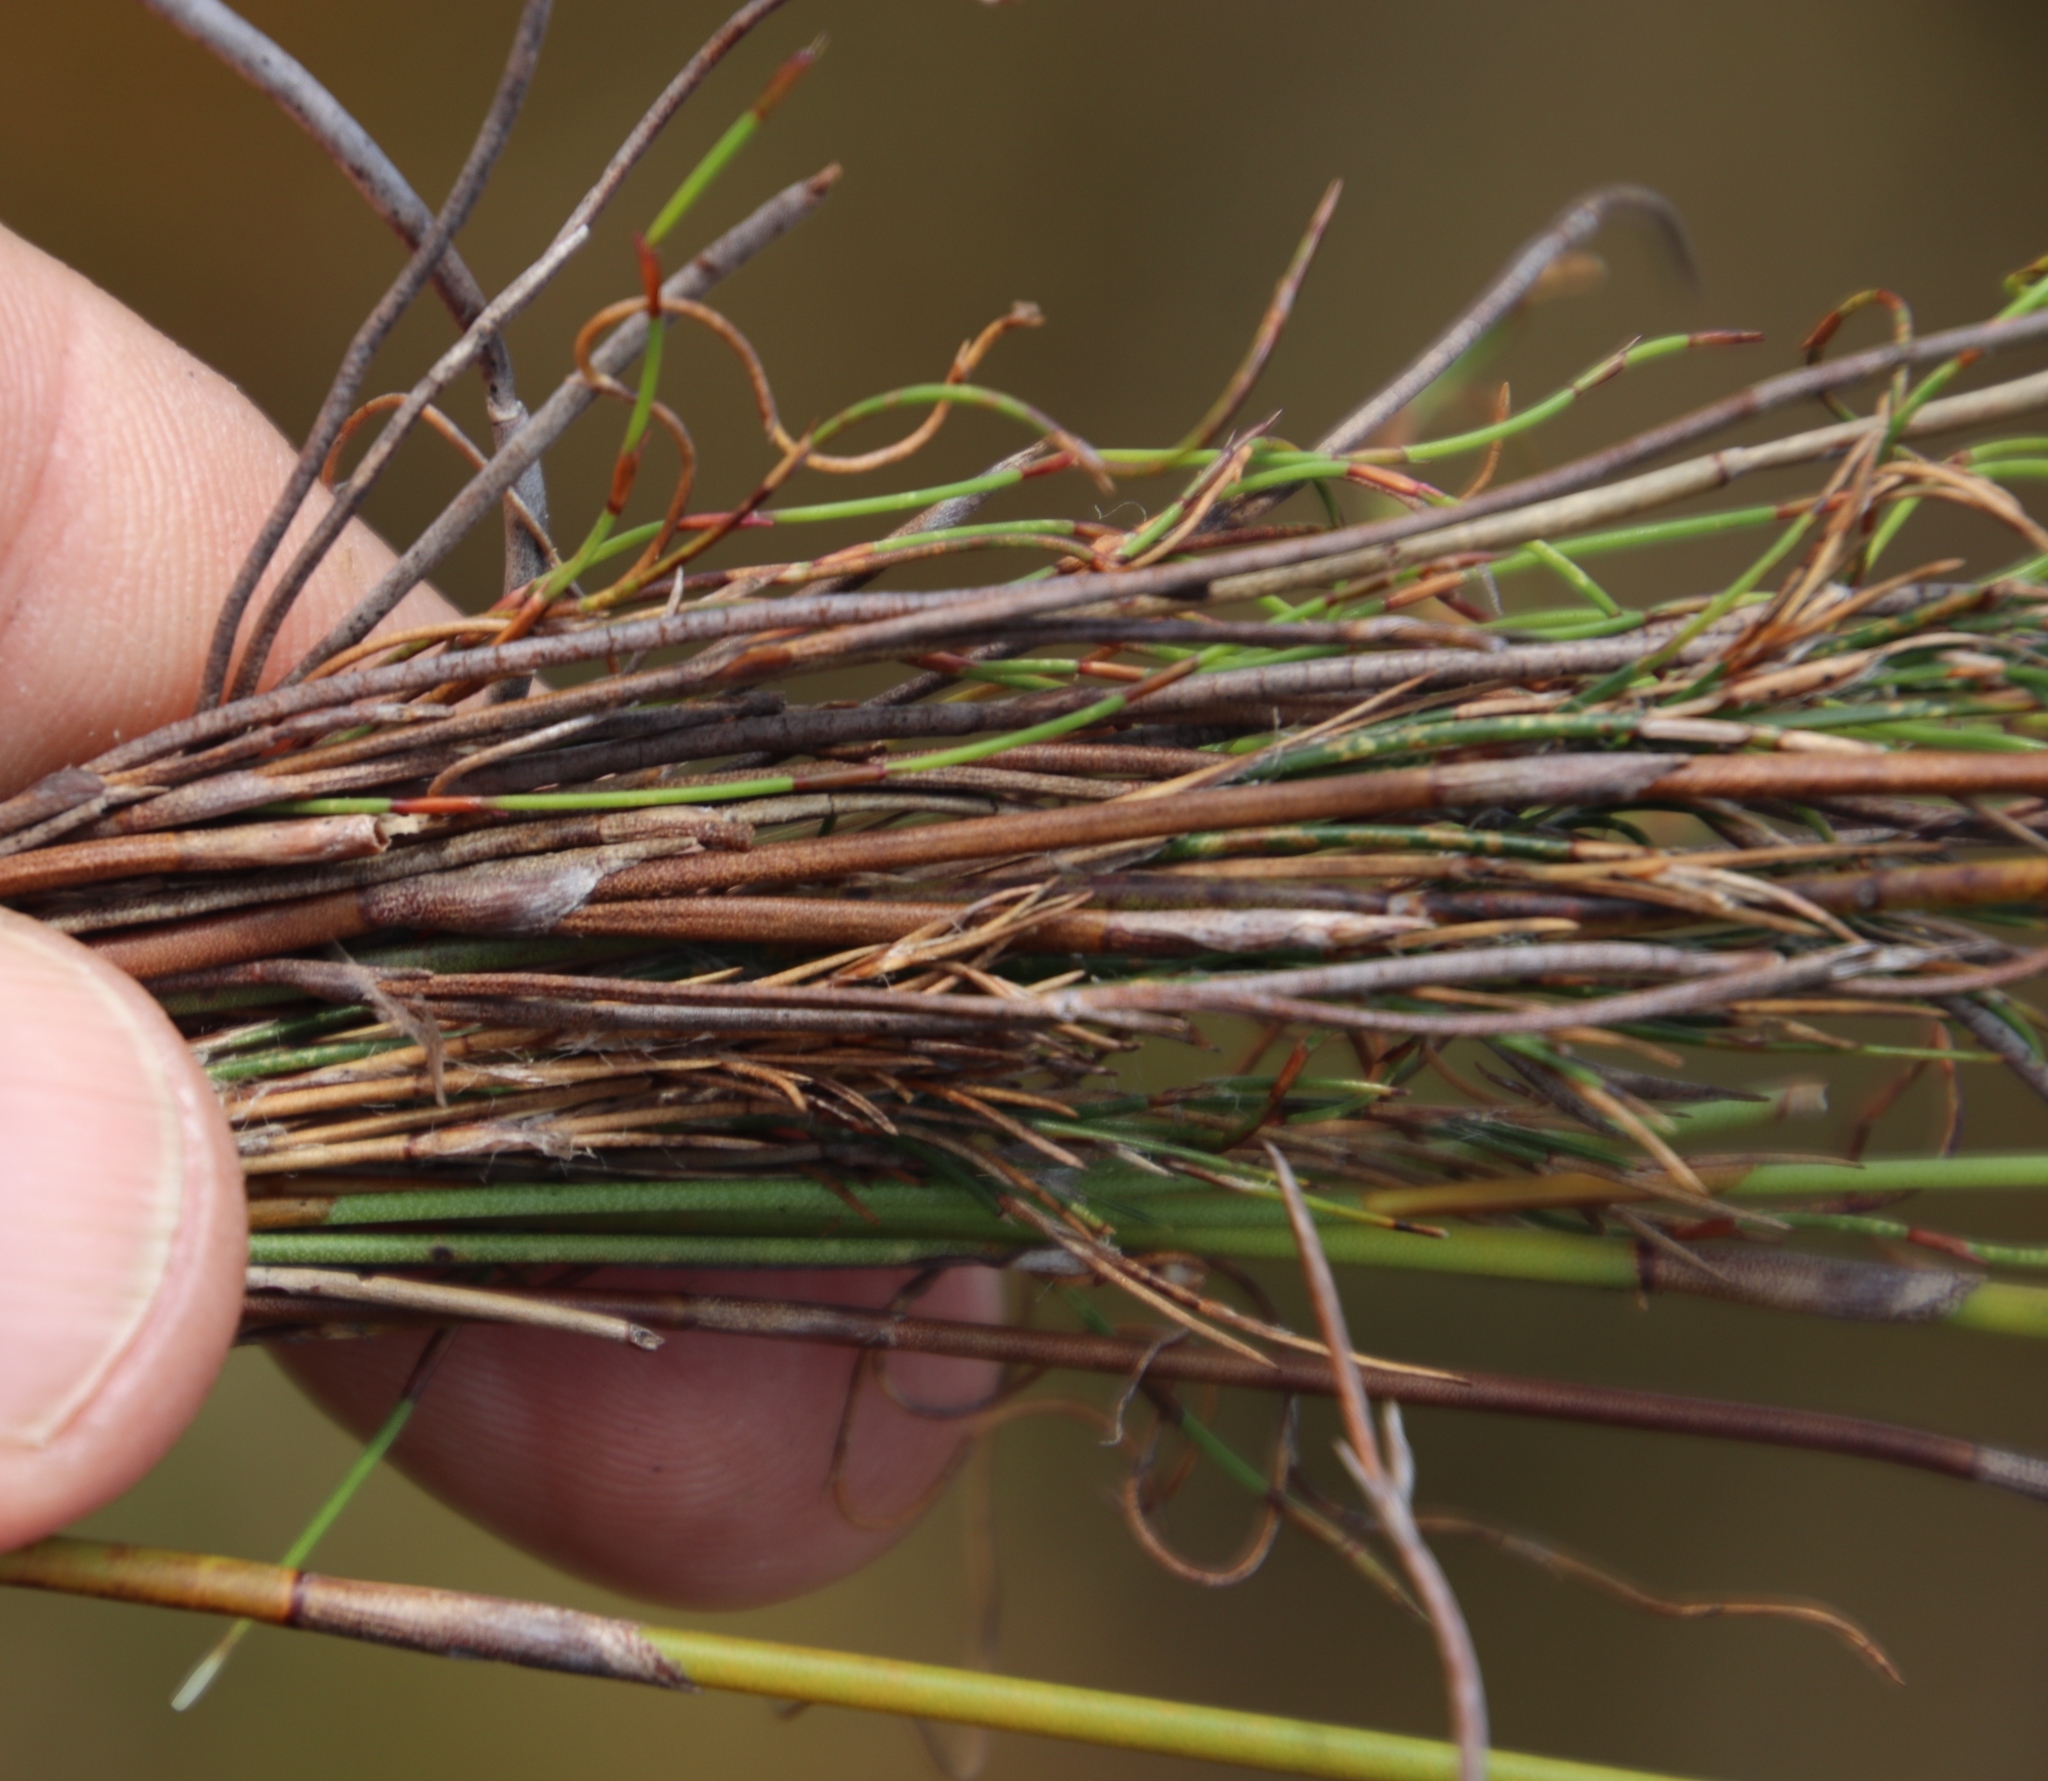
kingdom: Plantae
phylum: Tracheophyta
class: Liliopsida
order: Poales
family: Restionaceae
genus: Restio
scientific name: Restio bifurcus
